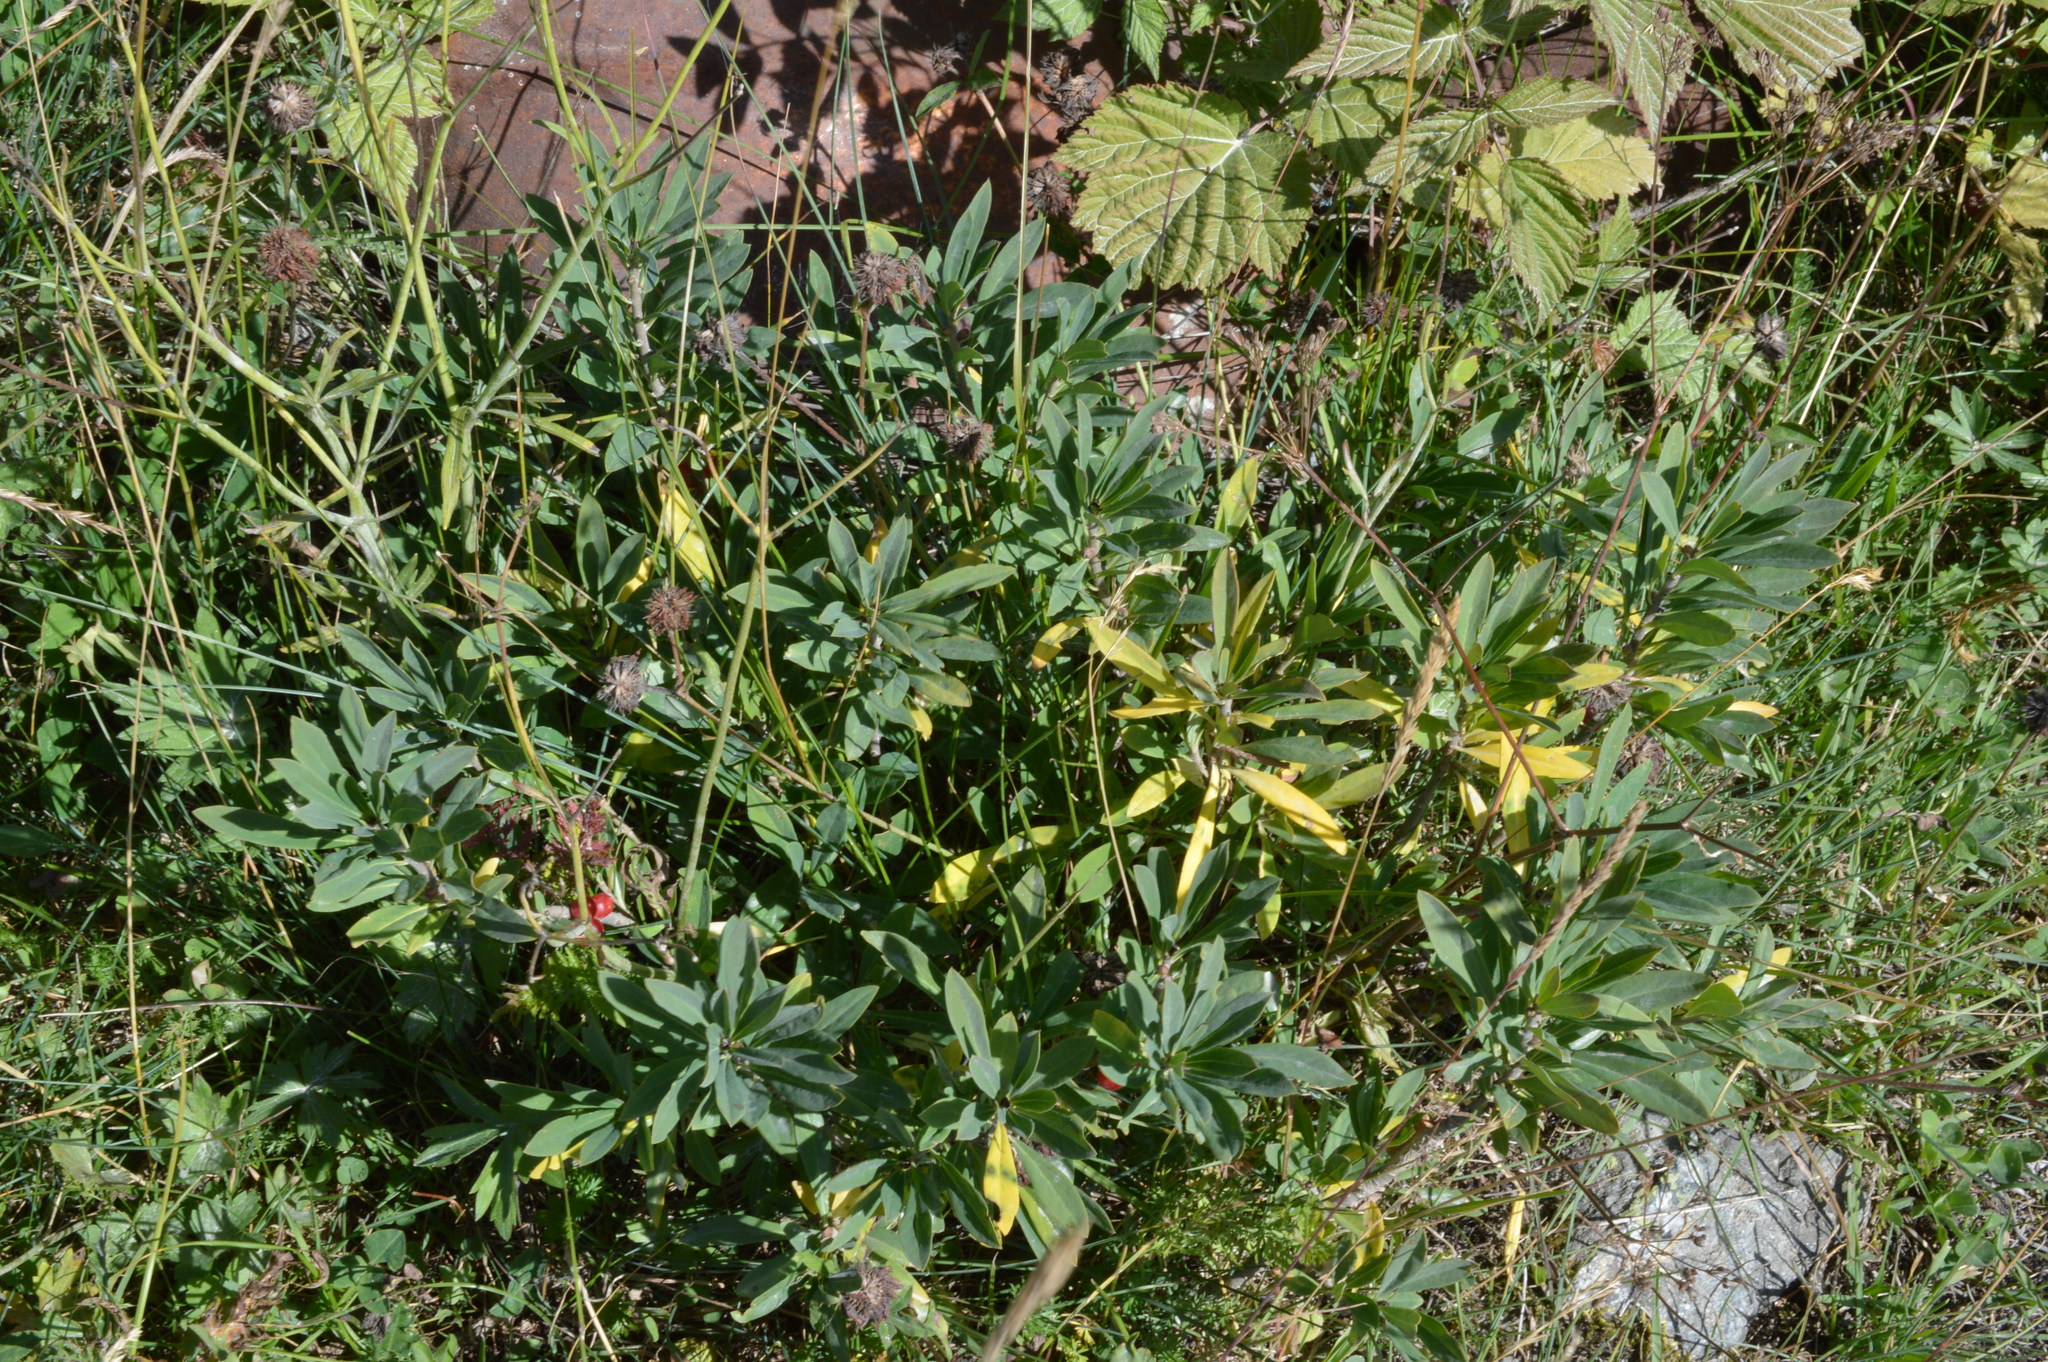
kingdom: Plantae
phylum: Tracheophyta
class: Magnoliopsida
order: Malvales
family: Thymelaeaceae
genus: Daphne
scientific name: Daphne mezereum
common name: Mezereon
